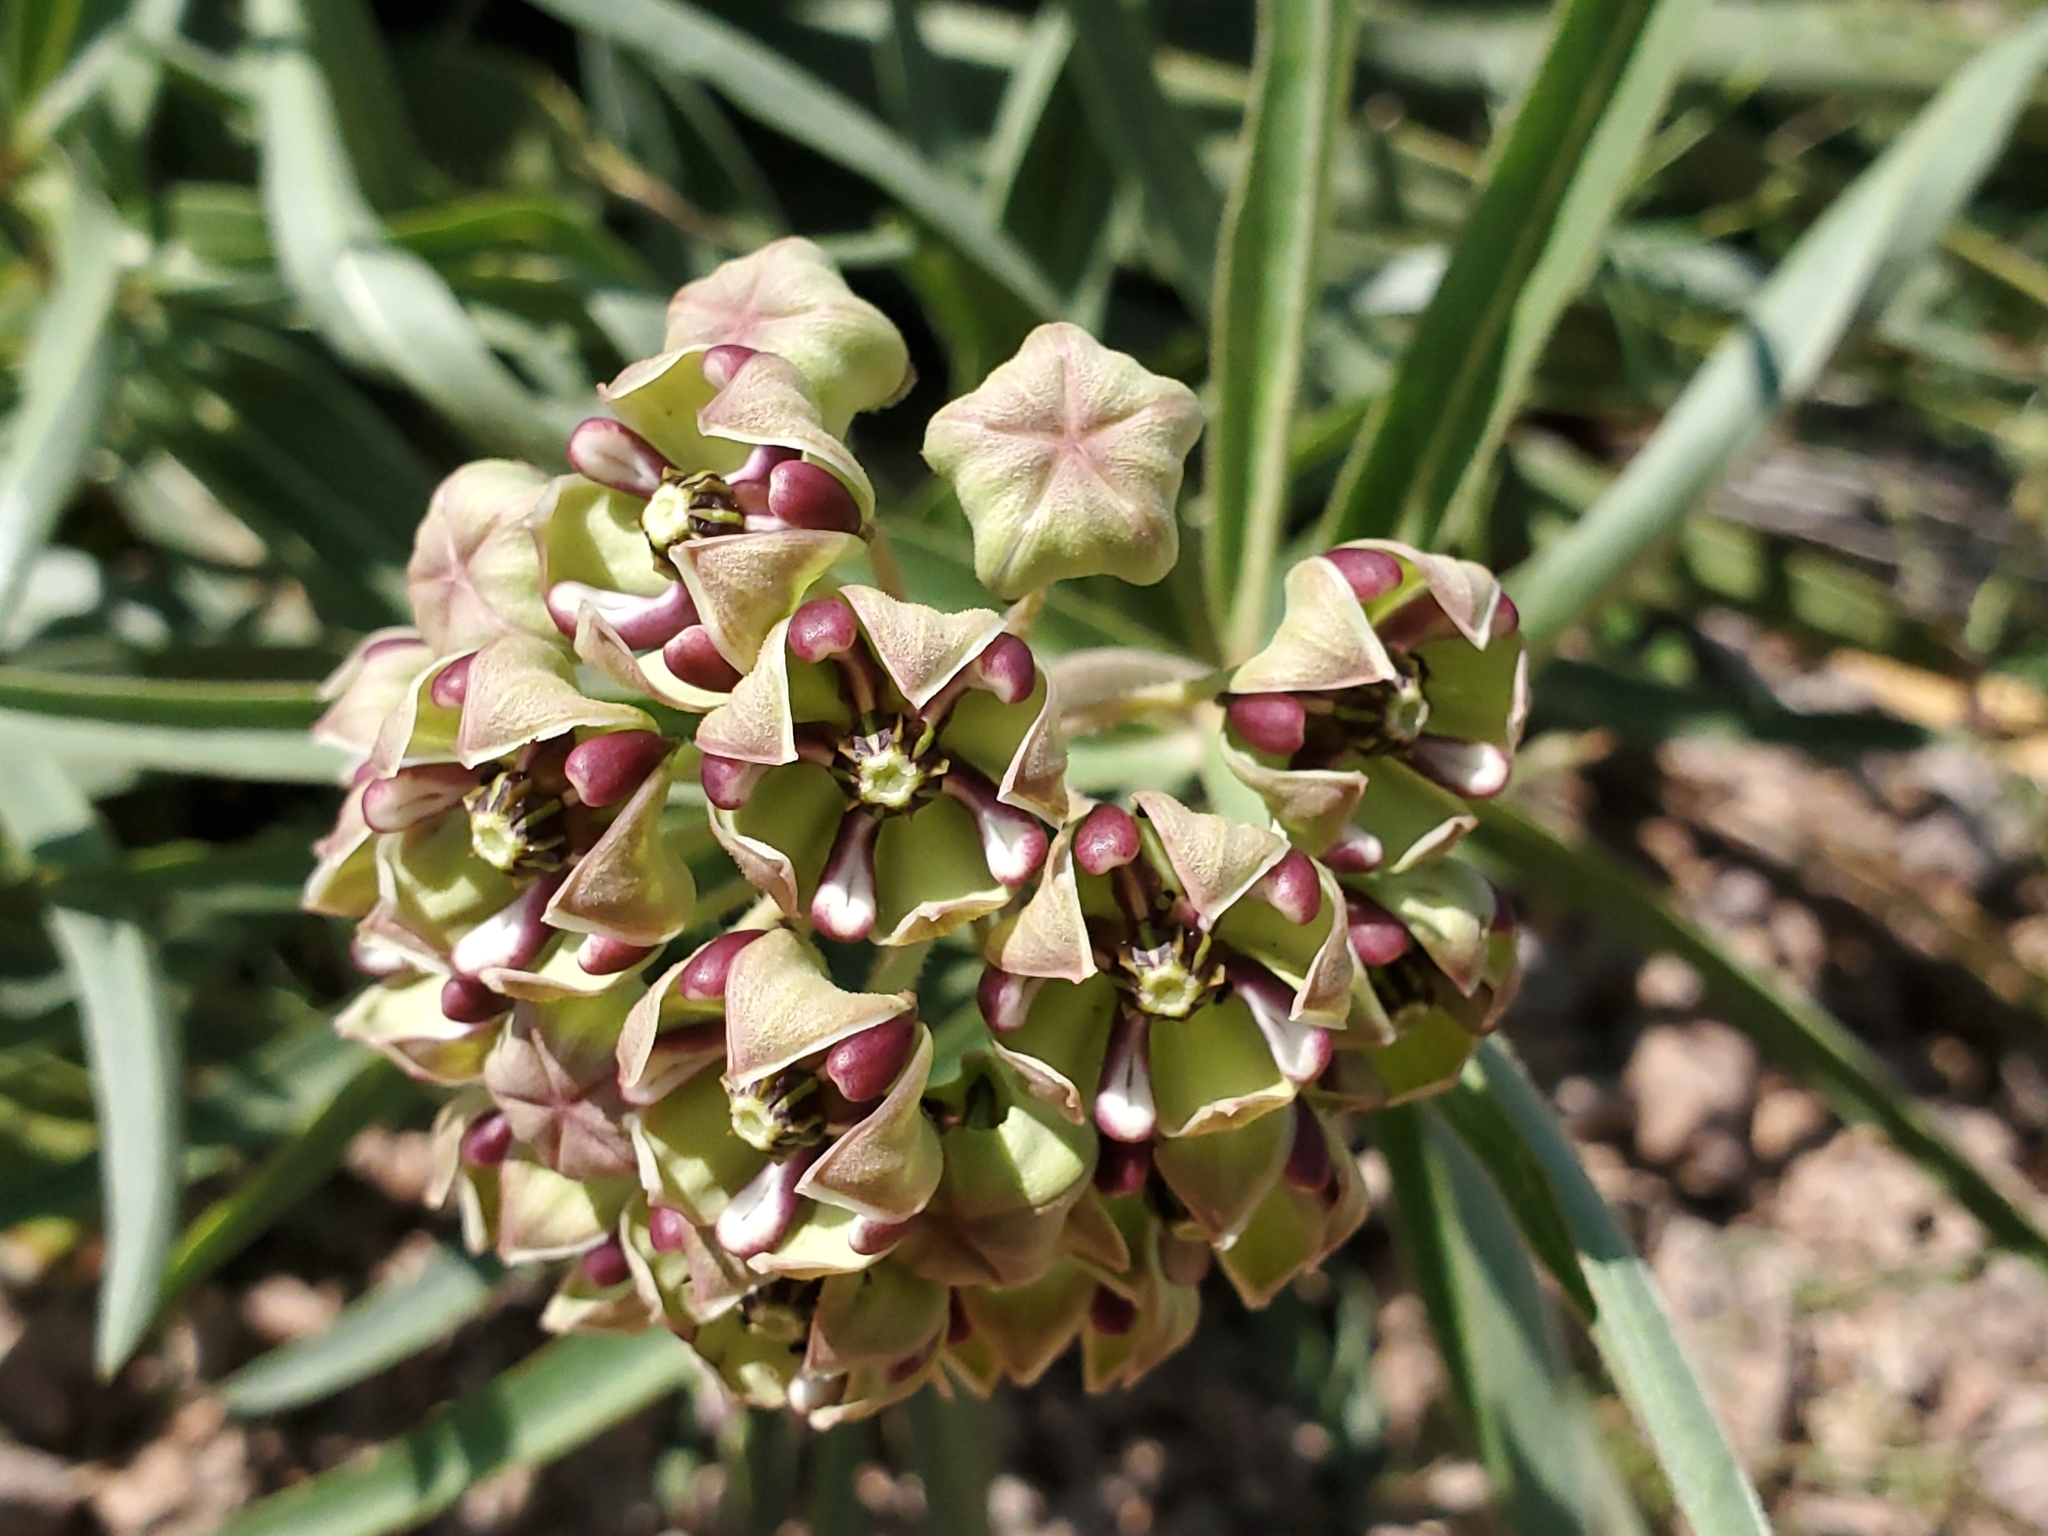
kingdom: Plantae
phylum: Tracheophyta
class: Magnoliopsida
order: Gentianales
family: Apocynaceae
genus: Asclepias
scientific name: Asclepias asperula
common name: Antelope horns
